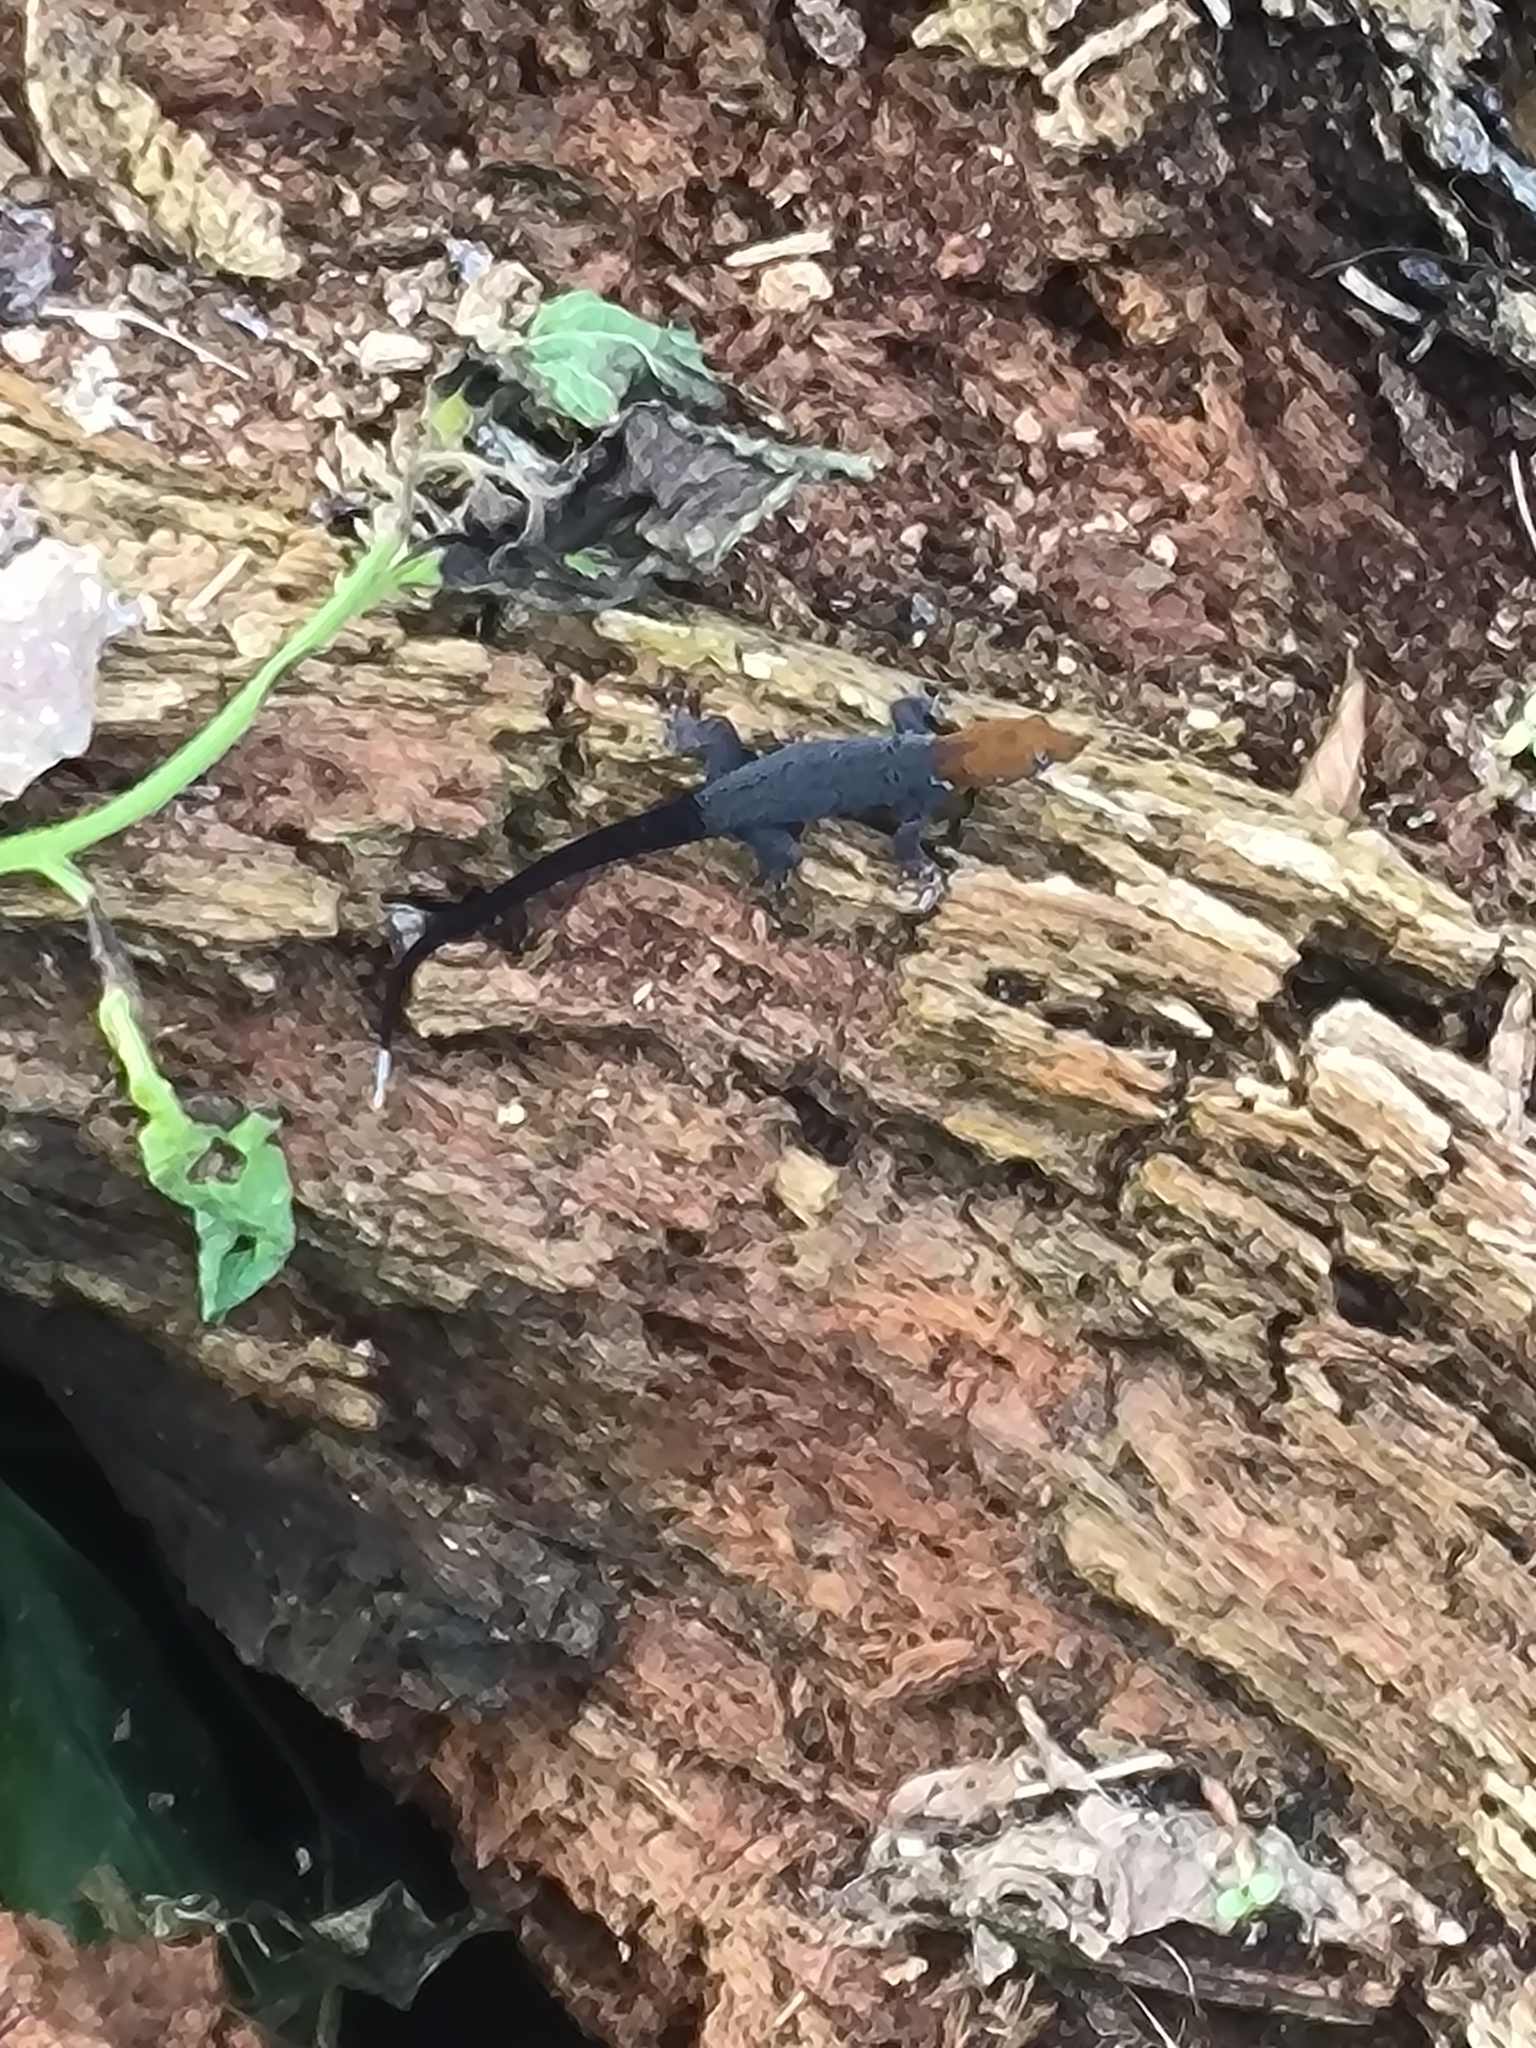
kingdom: Animalia
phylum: Chordata
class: Squamata
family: Sphaerodactylidae
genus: Gonatodes
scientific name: Gonatodes albogularis
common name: Yellow-headed gecko
